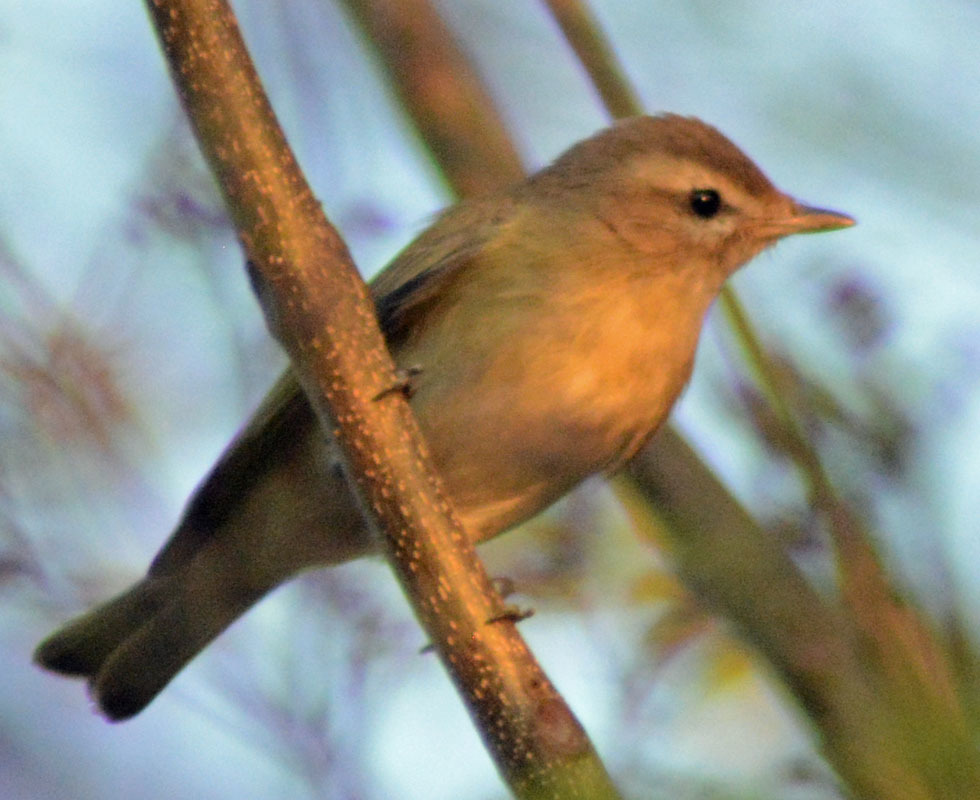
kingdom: Animalia
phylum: Chordata
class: Aves
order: Passeriformes
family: Vireonidae
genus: Vireo
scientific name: Vireo gilvus
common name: Warbling vireo
